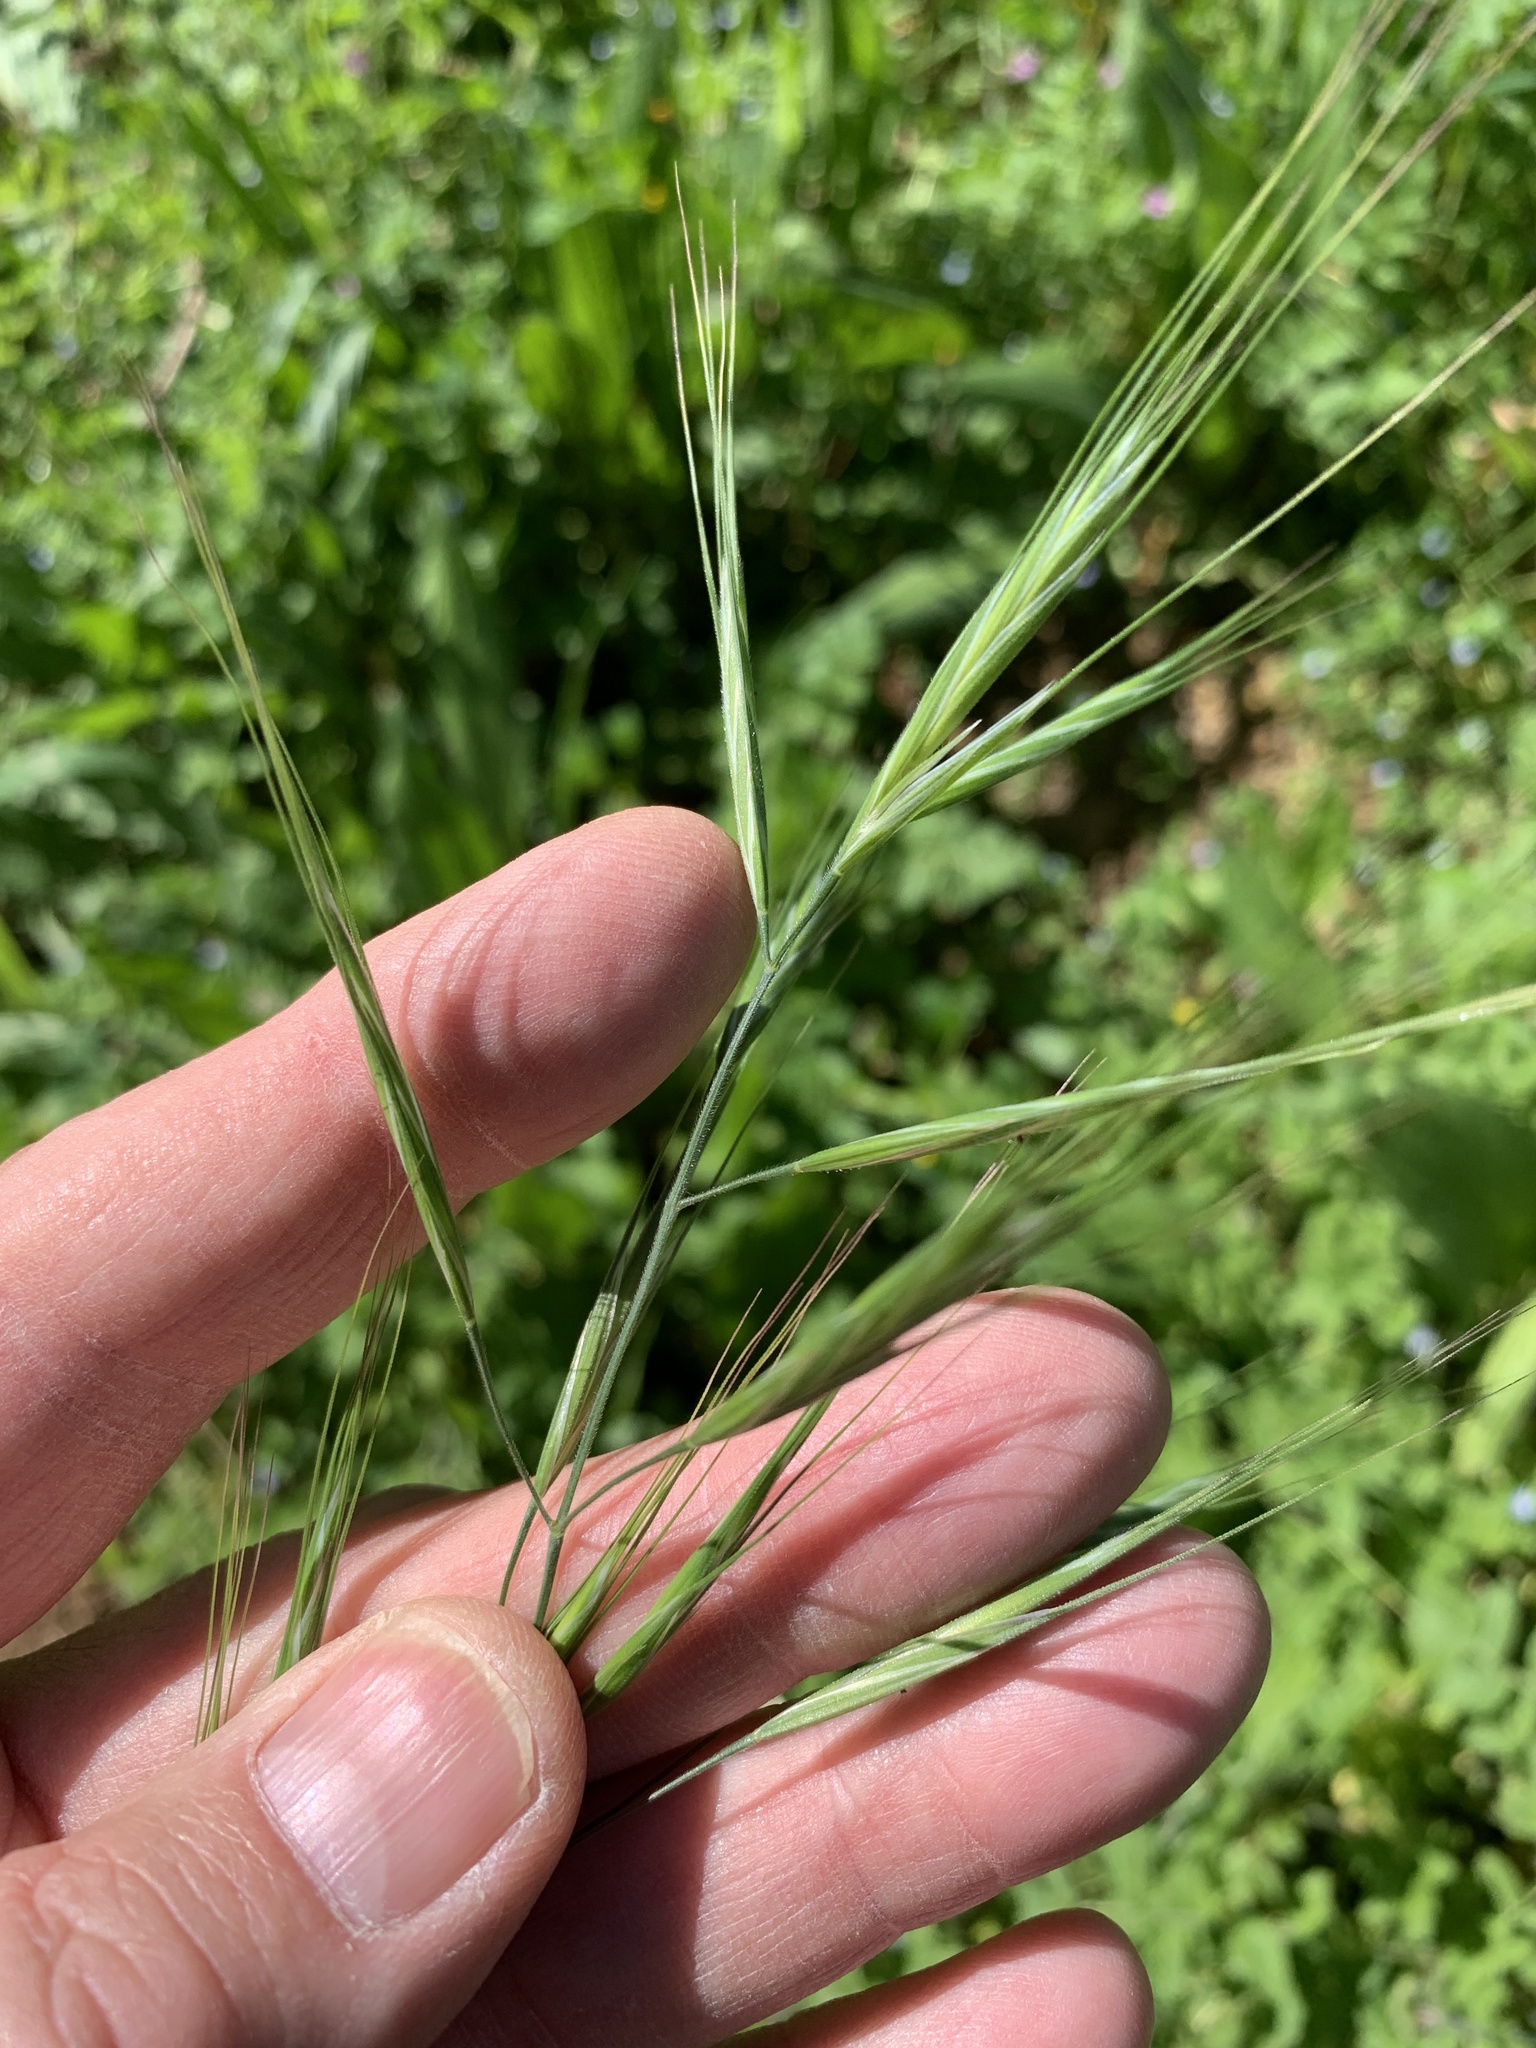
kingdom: Plantae
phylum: Tracheophyta
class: Liliopsida
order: Poales
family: Poaceae
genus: Bromus
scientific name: Bromus diandrus
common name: Ripgut brome
